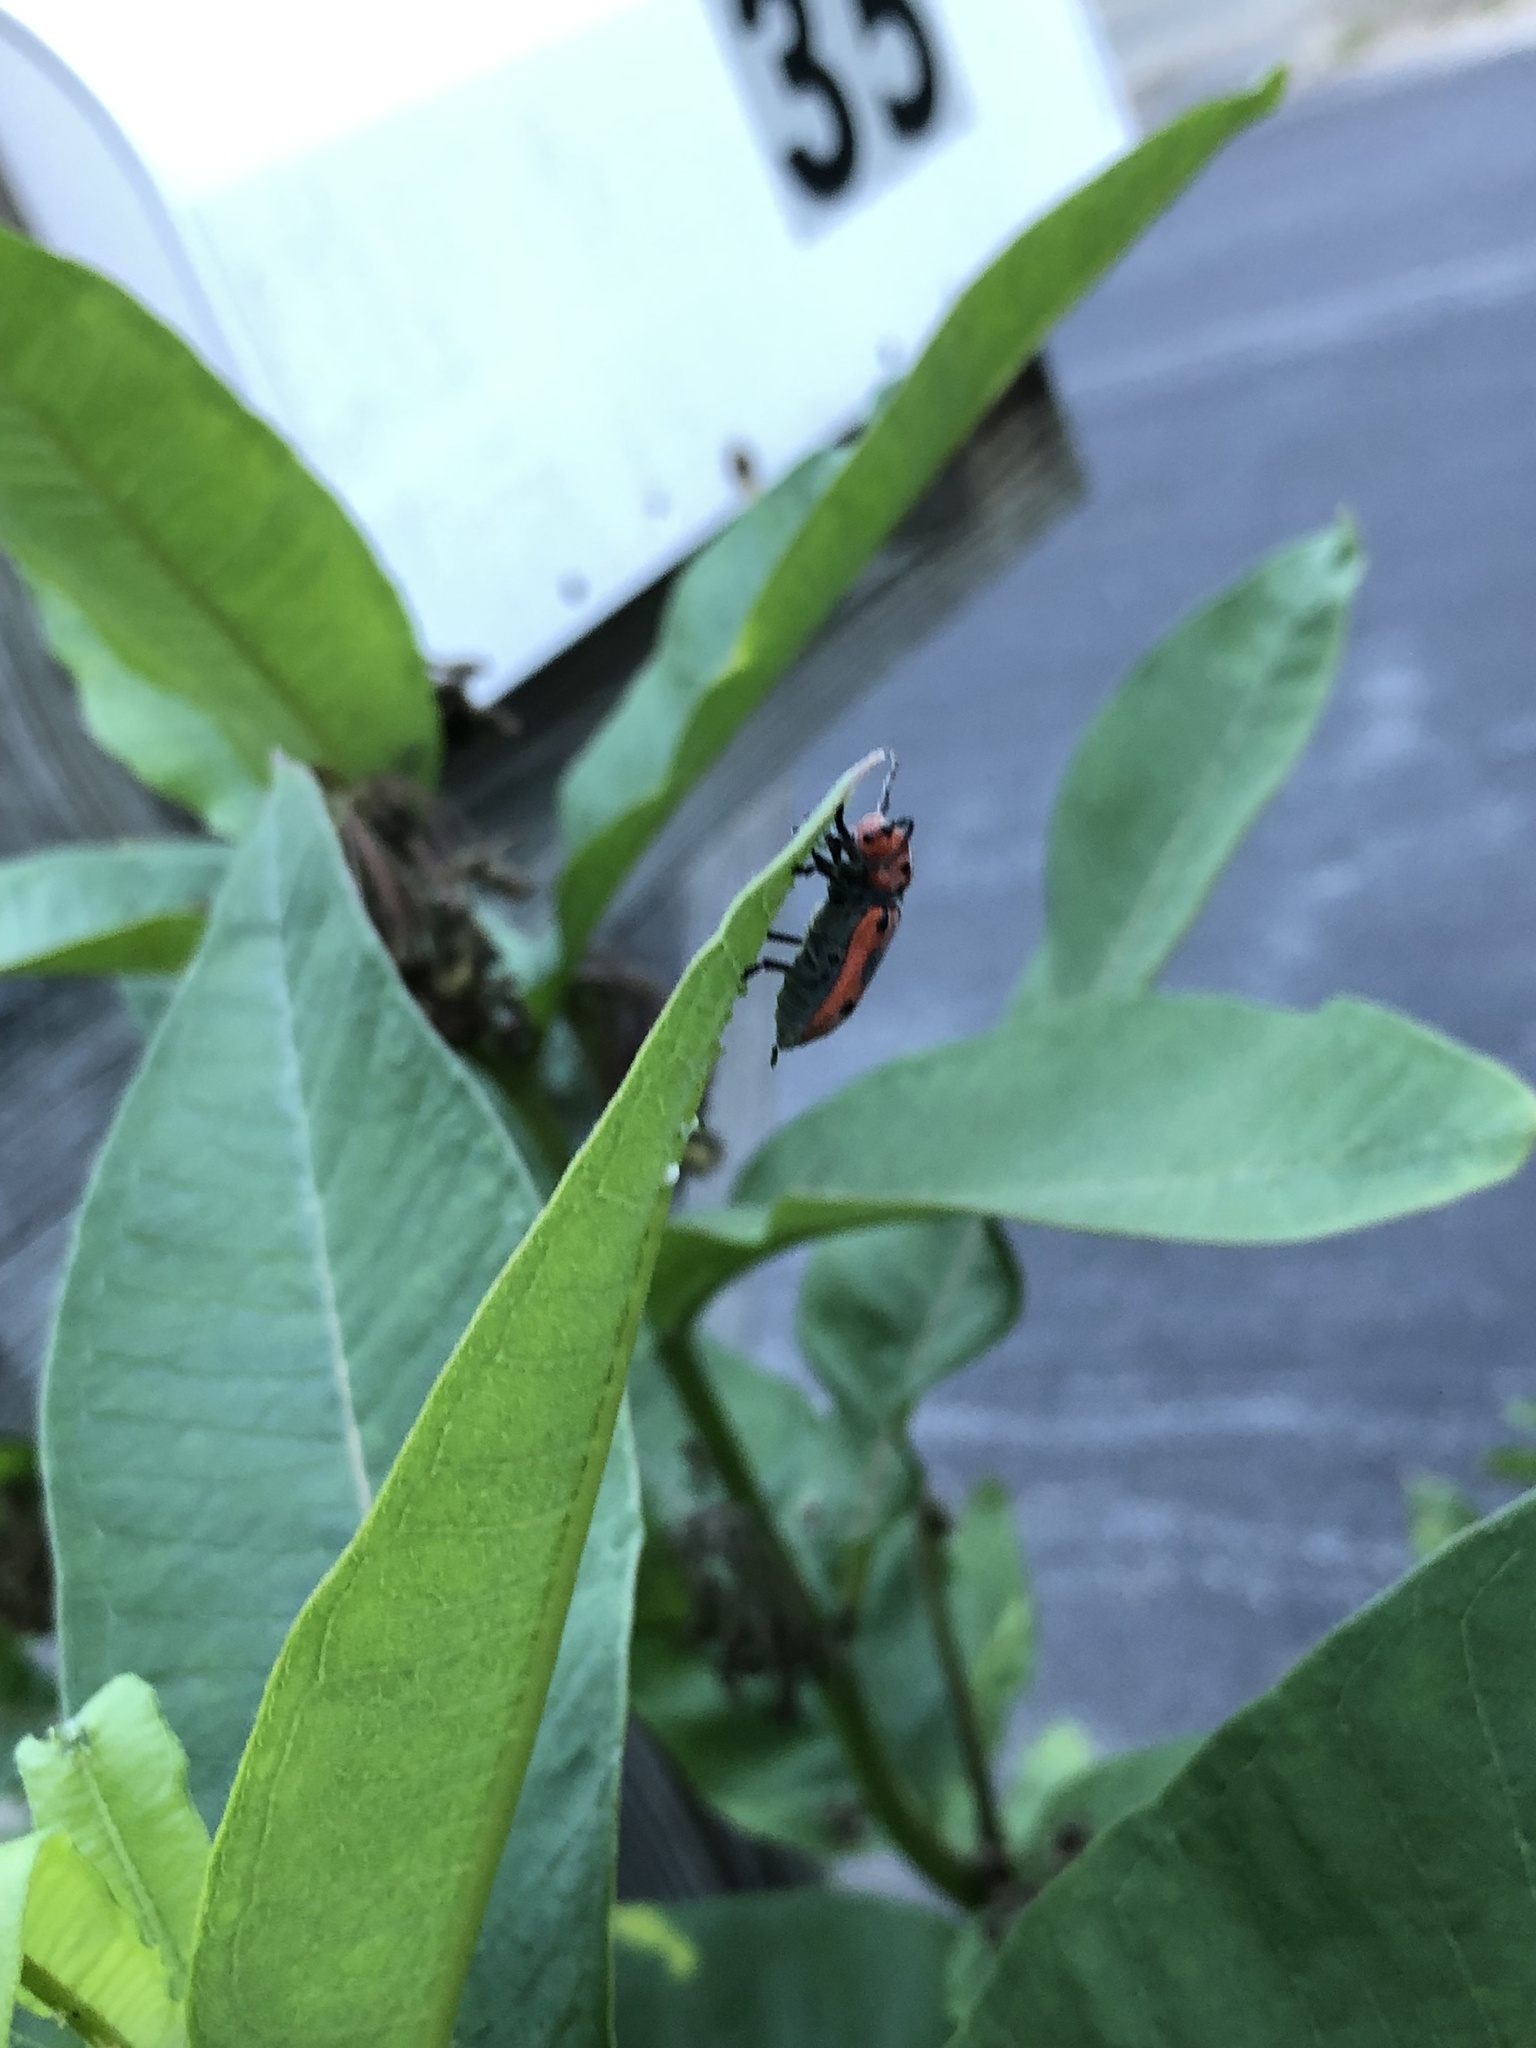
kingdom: Animalia
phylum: Arthropoda
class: Insecta
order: Coleoptera
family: Cerambycidae
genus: Tetraopes
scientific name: Tetraopes tetrophthalmus
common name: Red milkweed beetle
